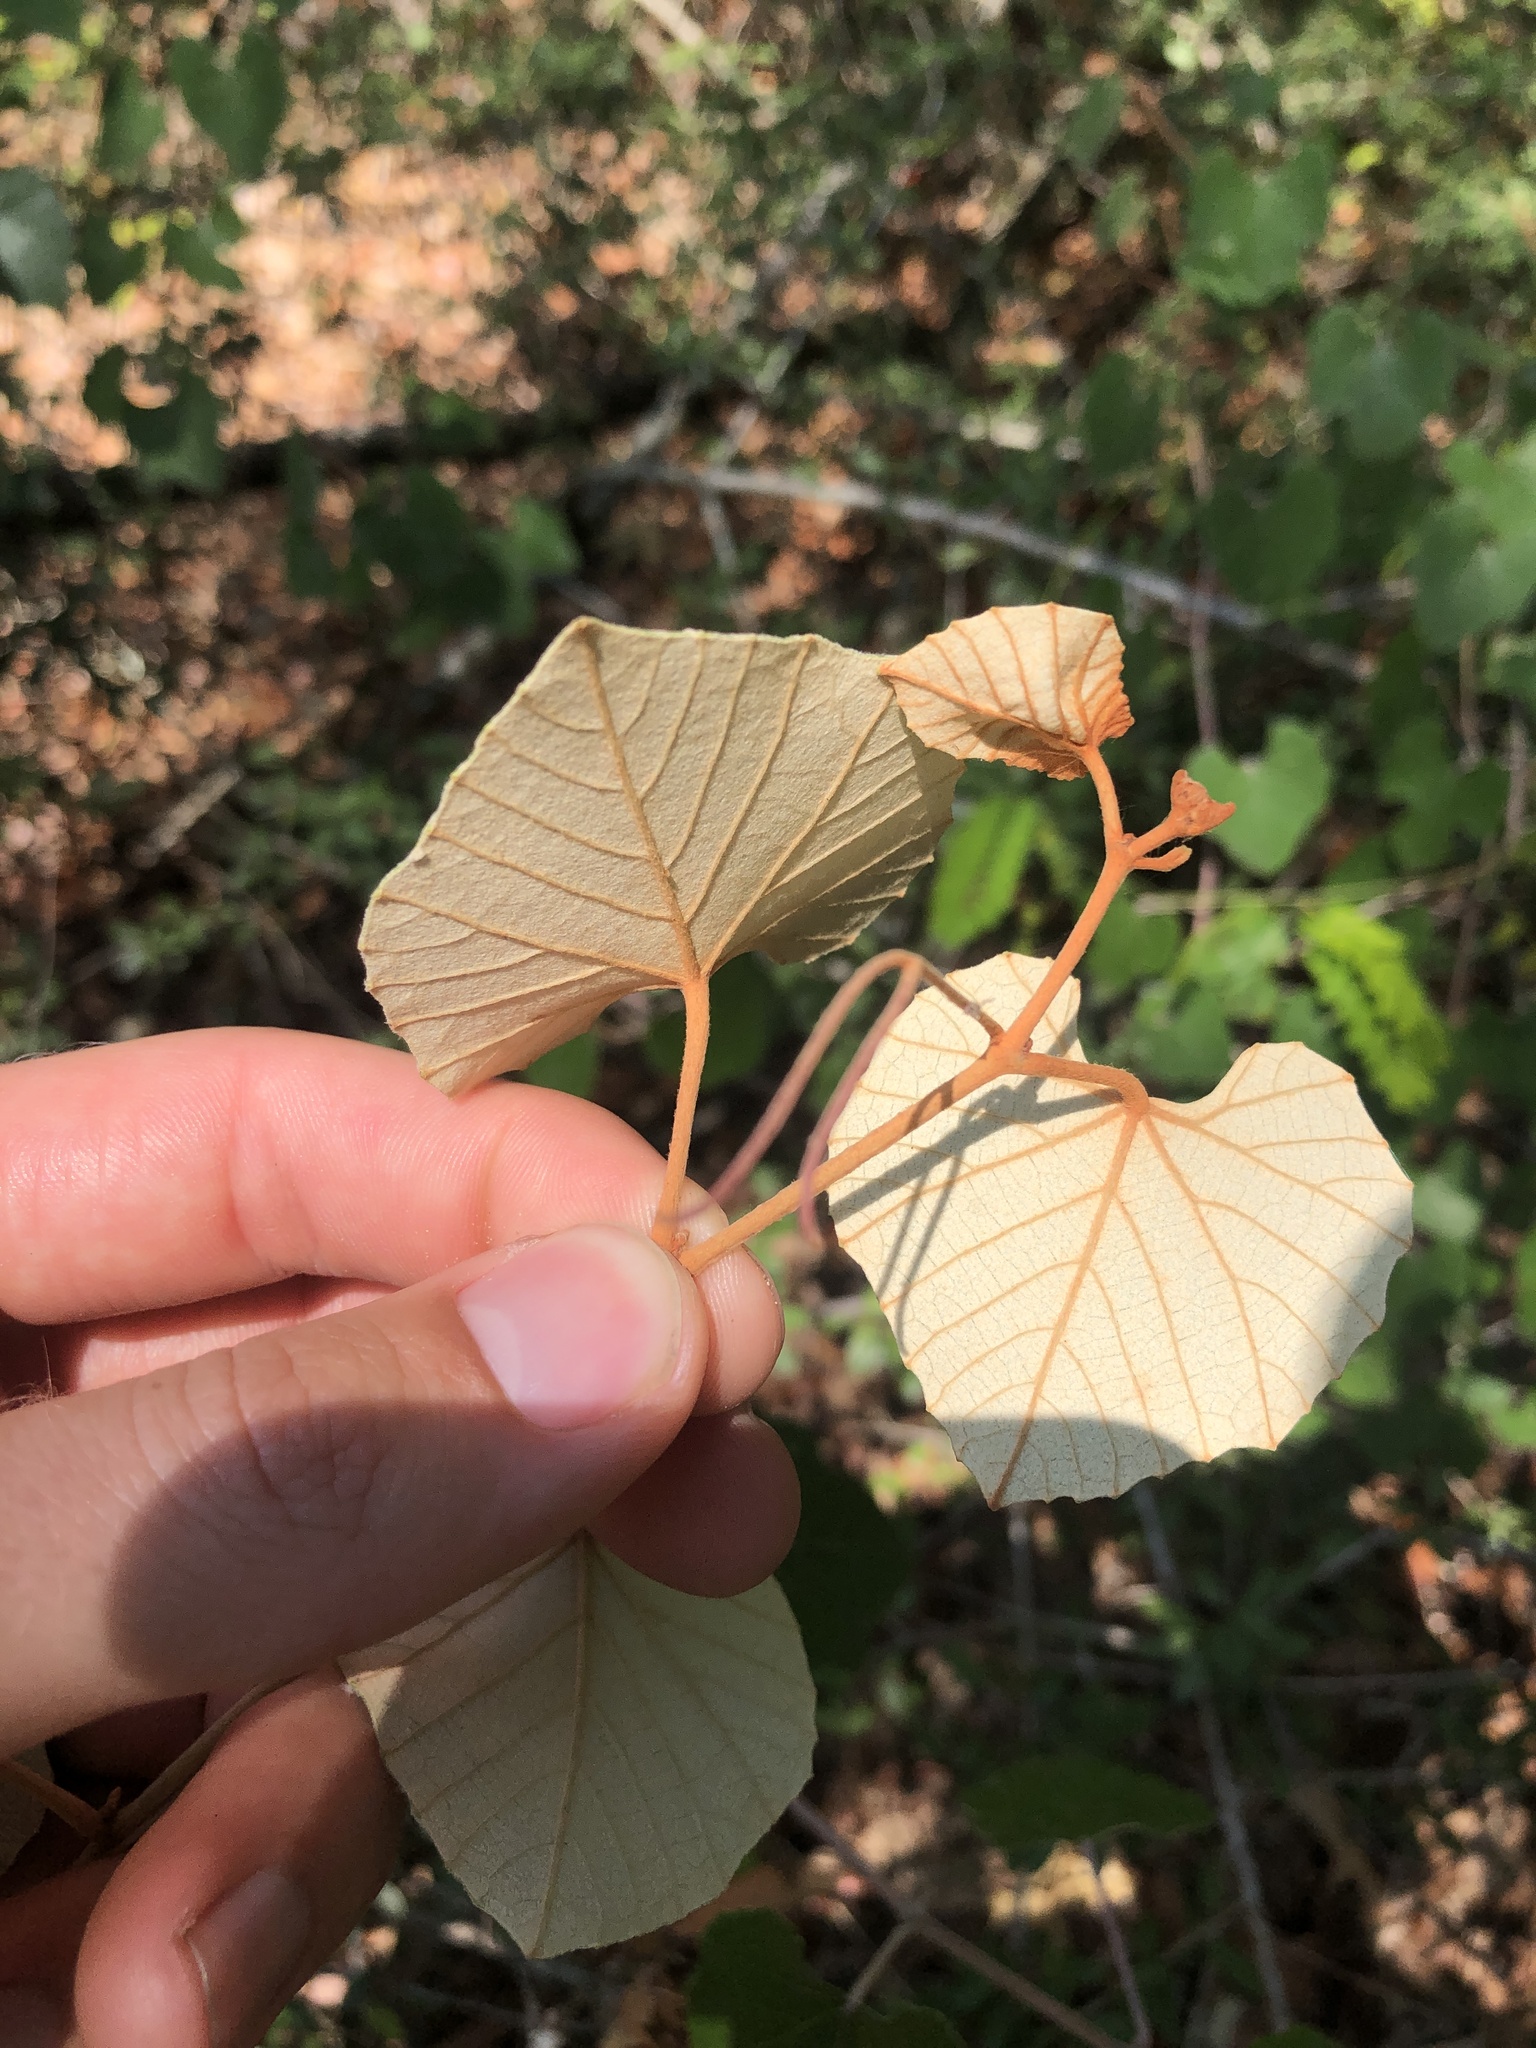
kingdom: Plantae
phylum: Tracheophyta
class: Magnoliopsida
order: Vitales
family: Vitaceae
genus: Vitis
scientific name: Vitis shuttleworthii
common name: Caloosa grape
